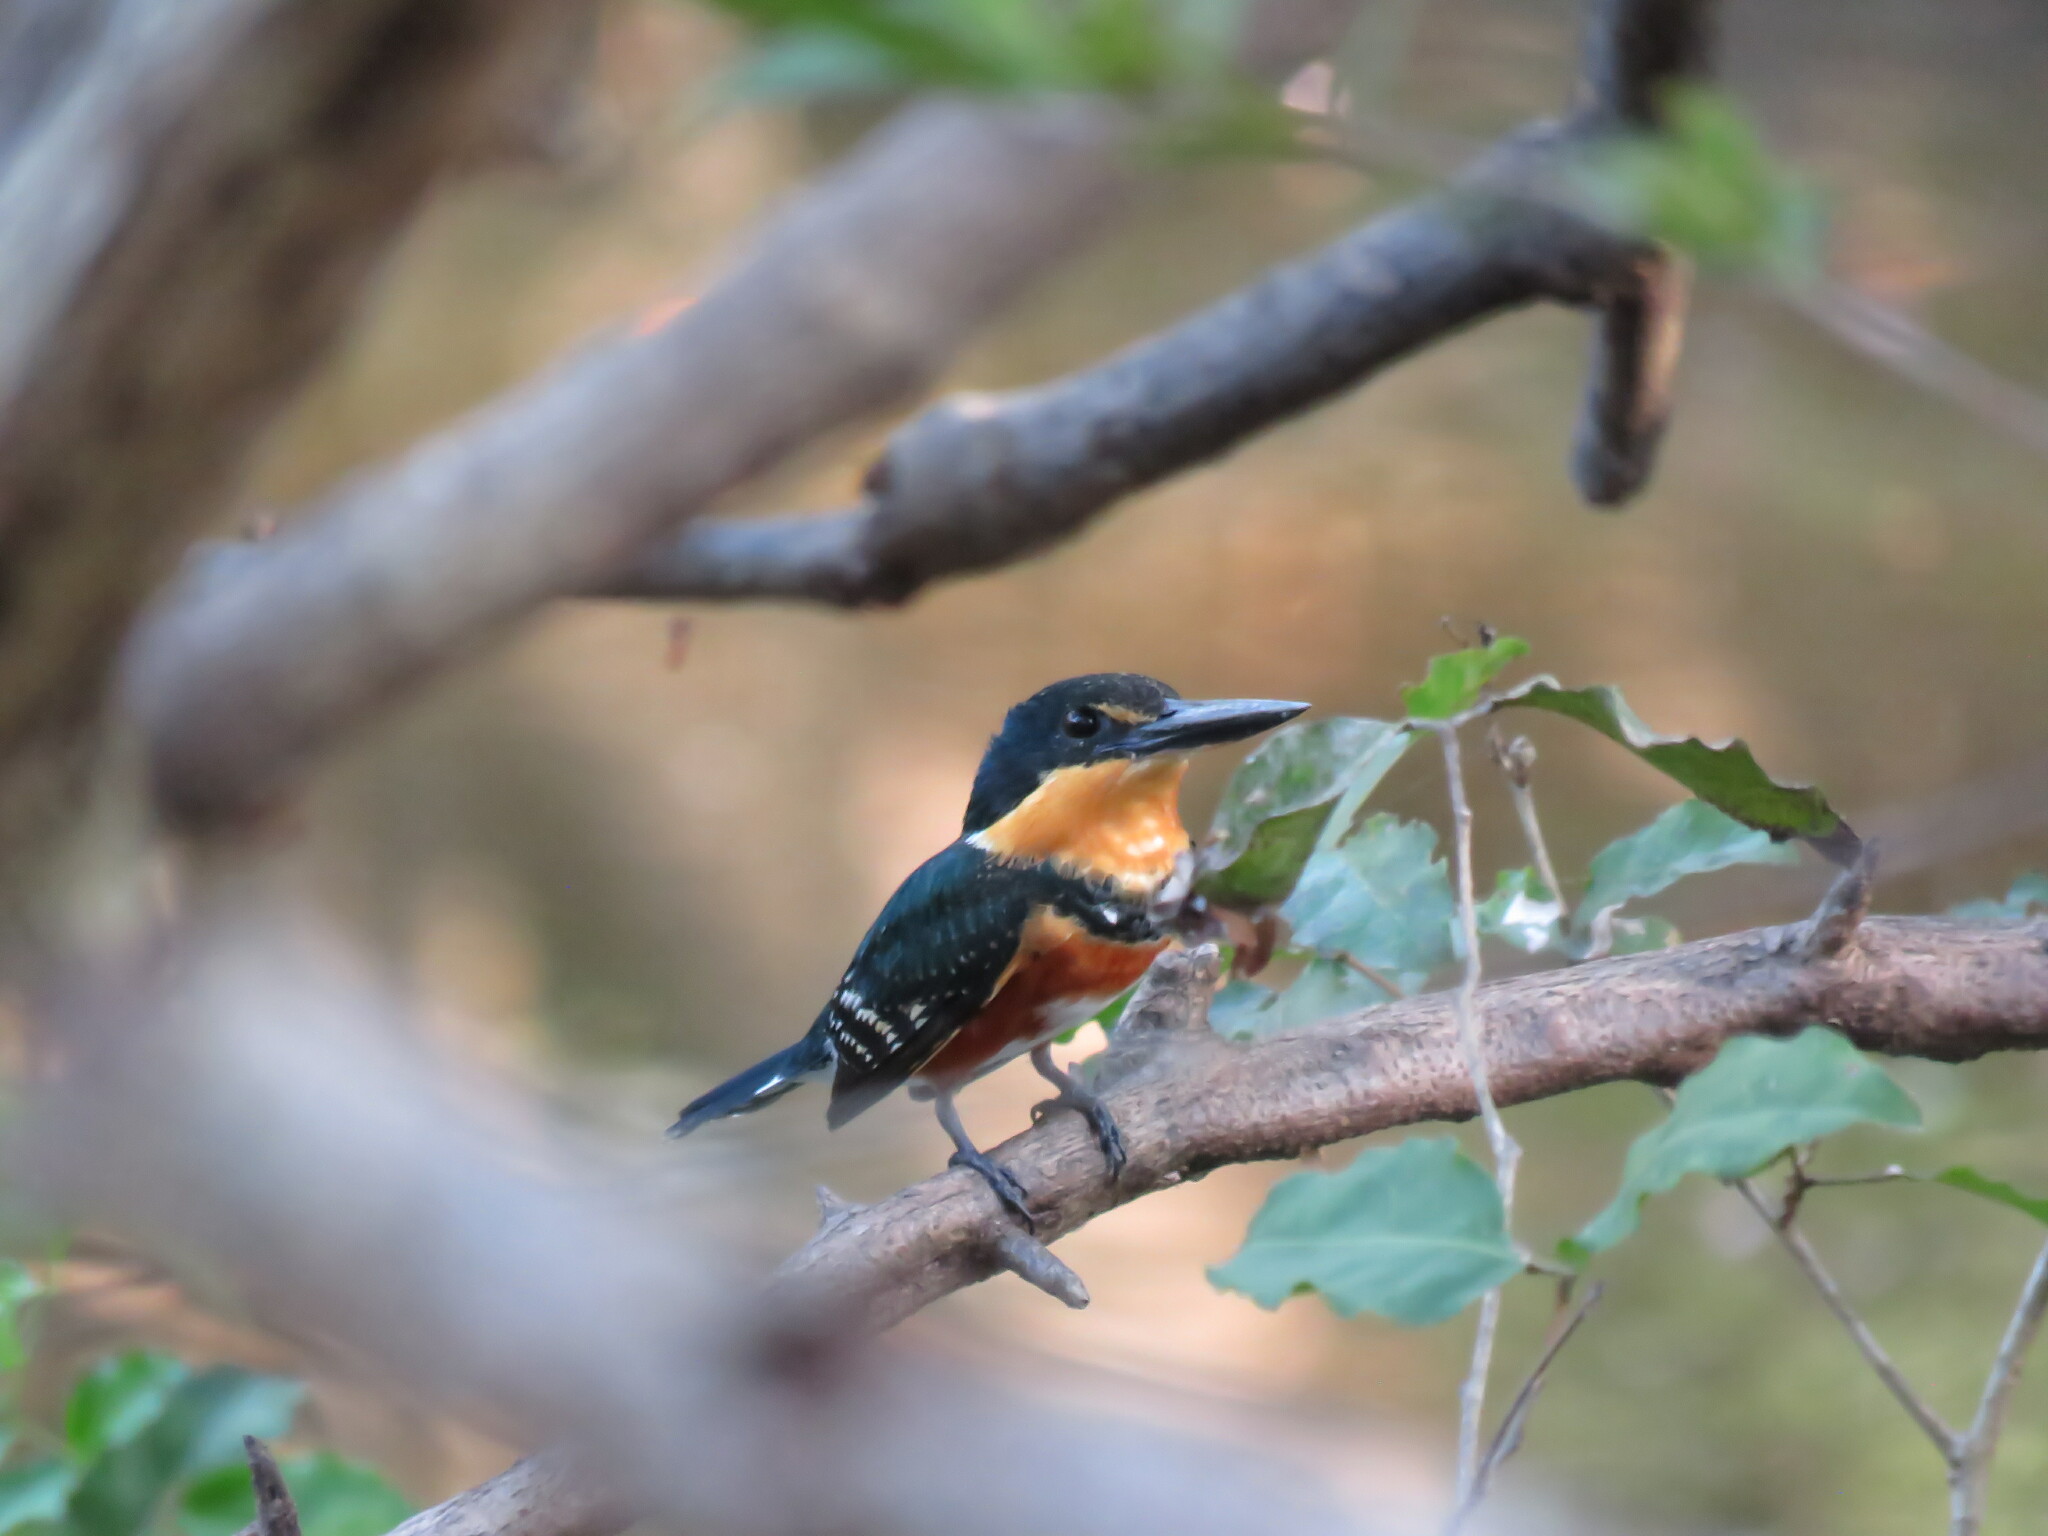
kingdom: Animalia
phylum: Chordata
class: Aves
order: Coraciiformes
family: Alcedinidae
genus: Chloroceryle
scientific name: Chloroceryle aenea
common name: American pygmy kingfisher
